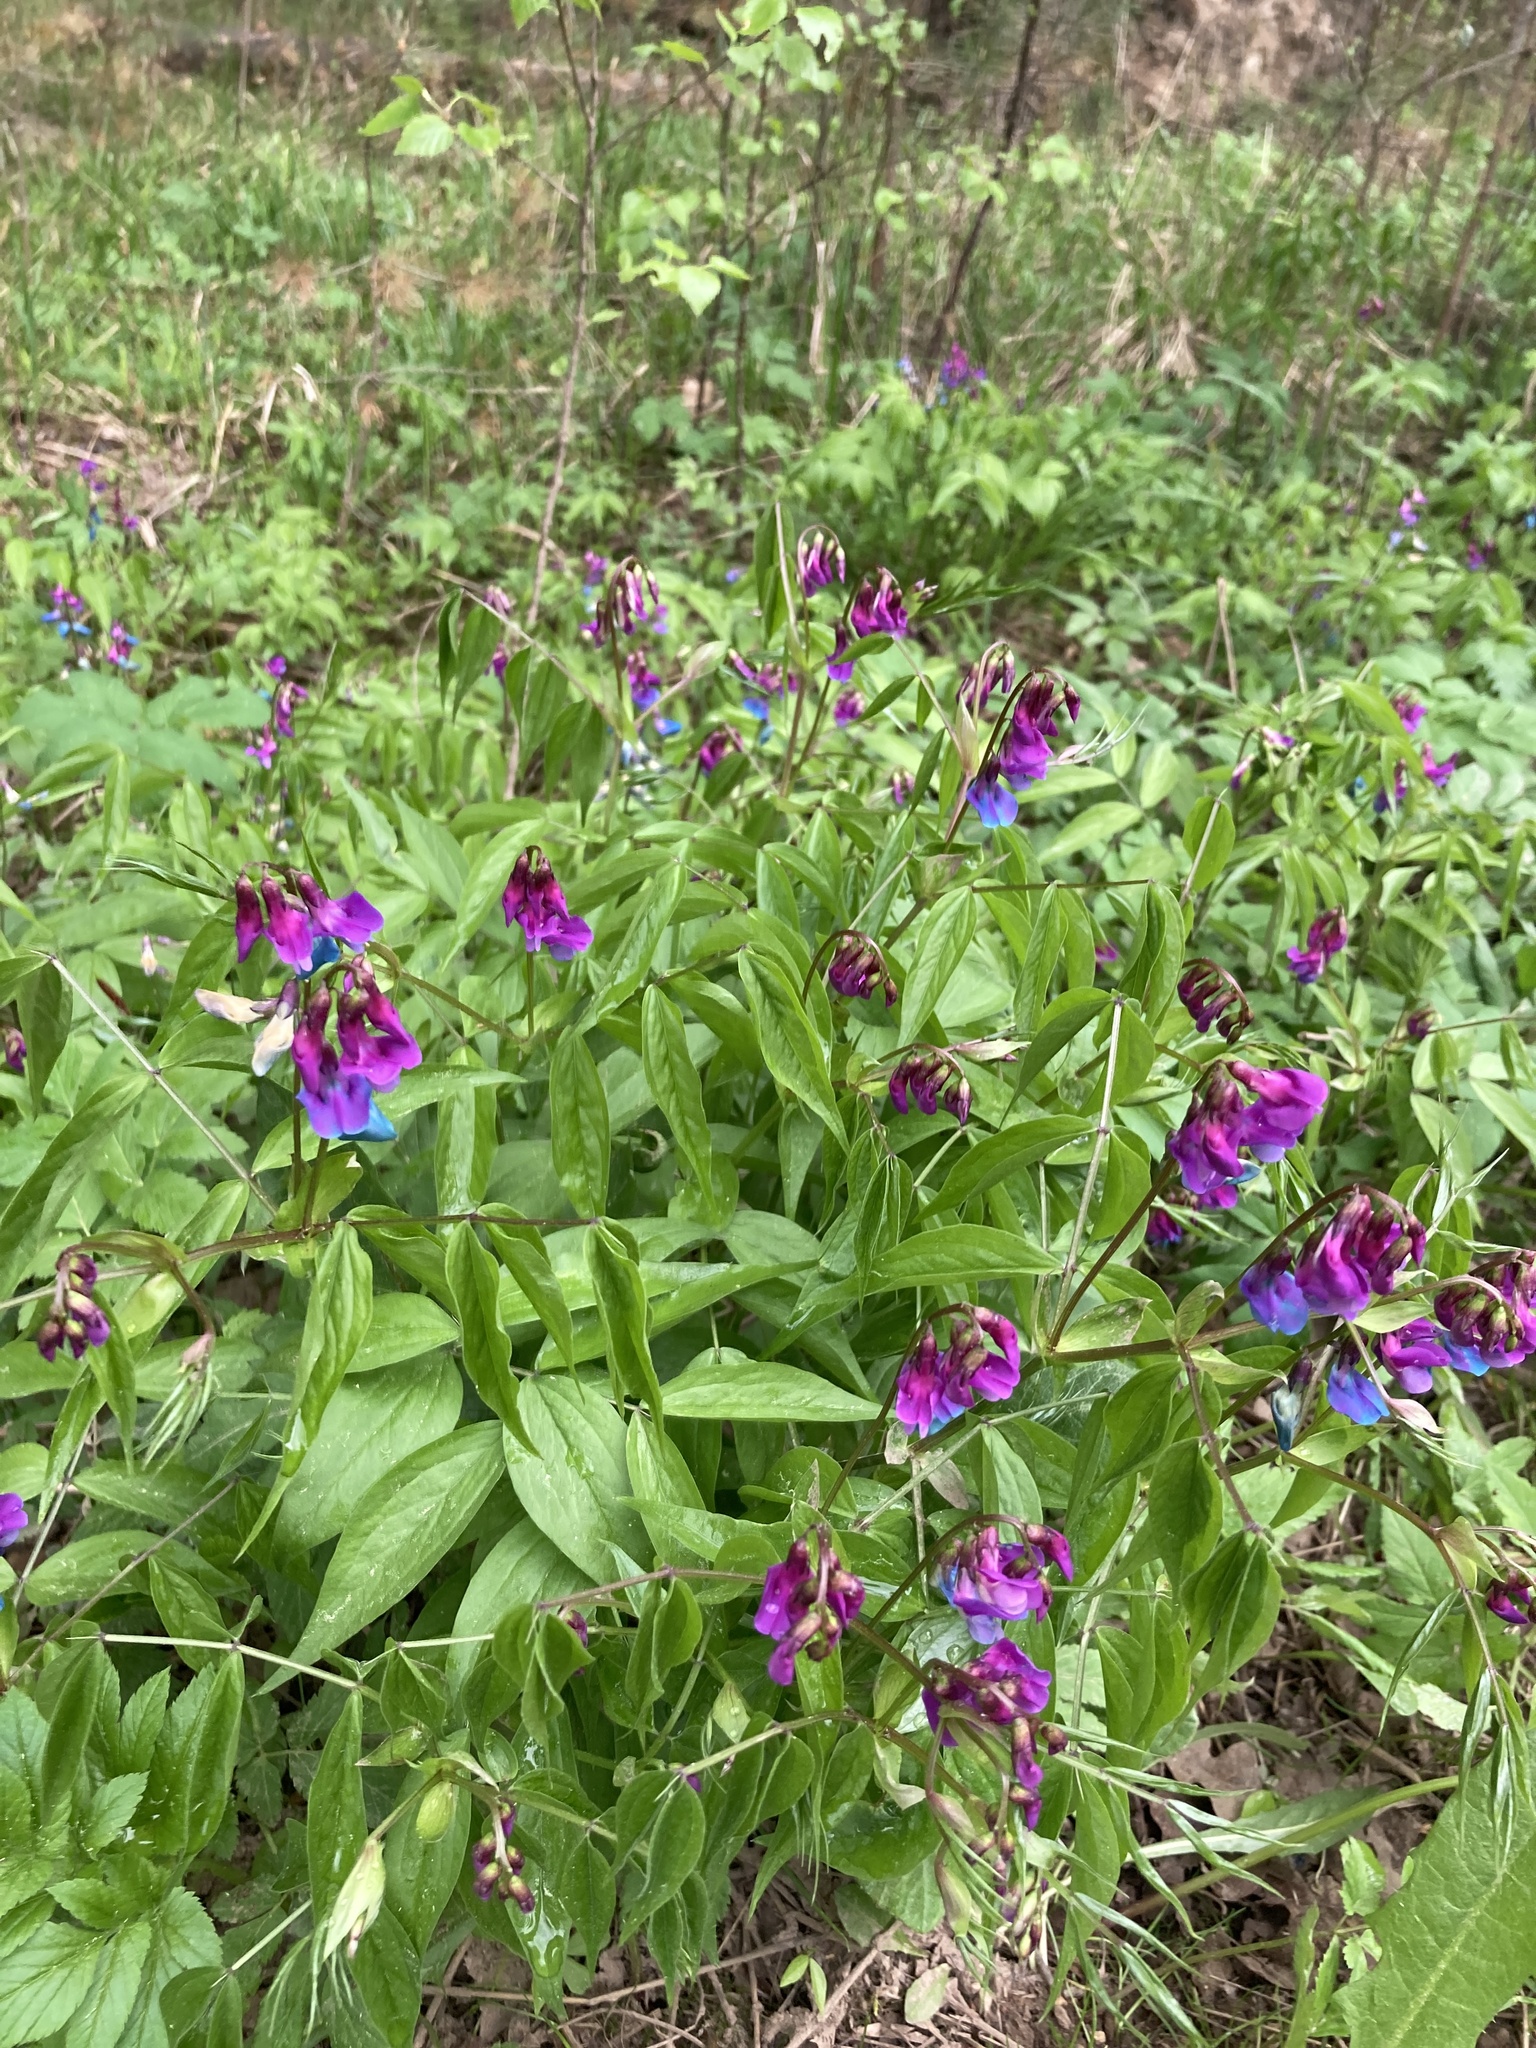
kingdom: Plantae
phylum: Tracheophyta
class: Magnoliopsida
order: Fabales
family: Fabaceae
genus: Lathyrus
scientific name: Lathyrus vernus
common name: Spring pea
